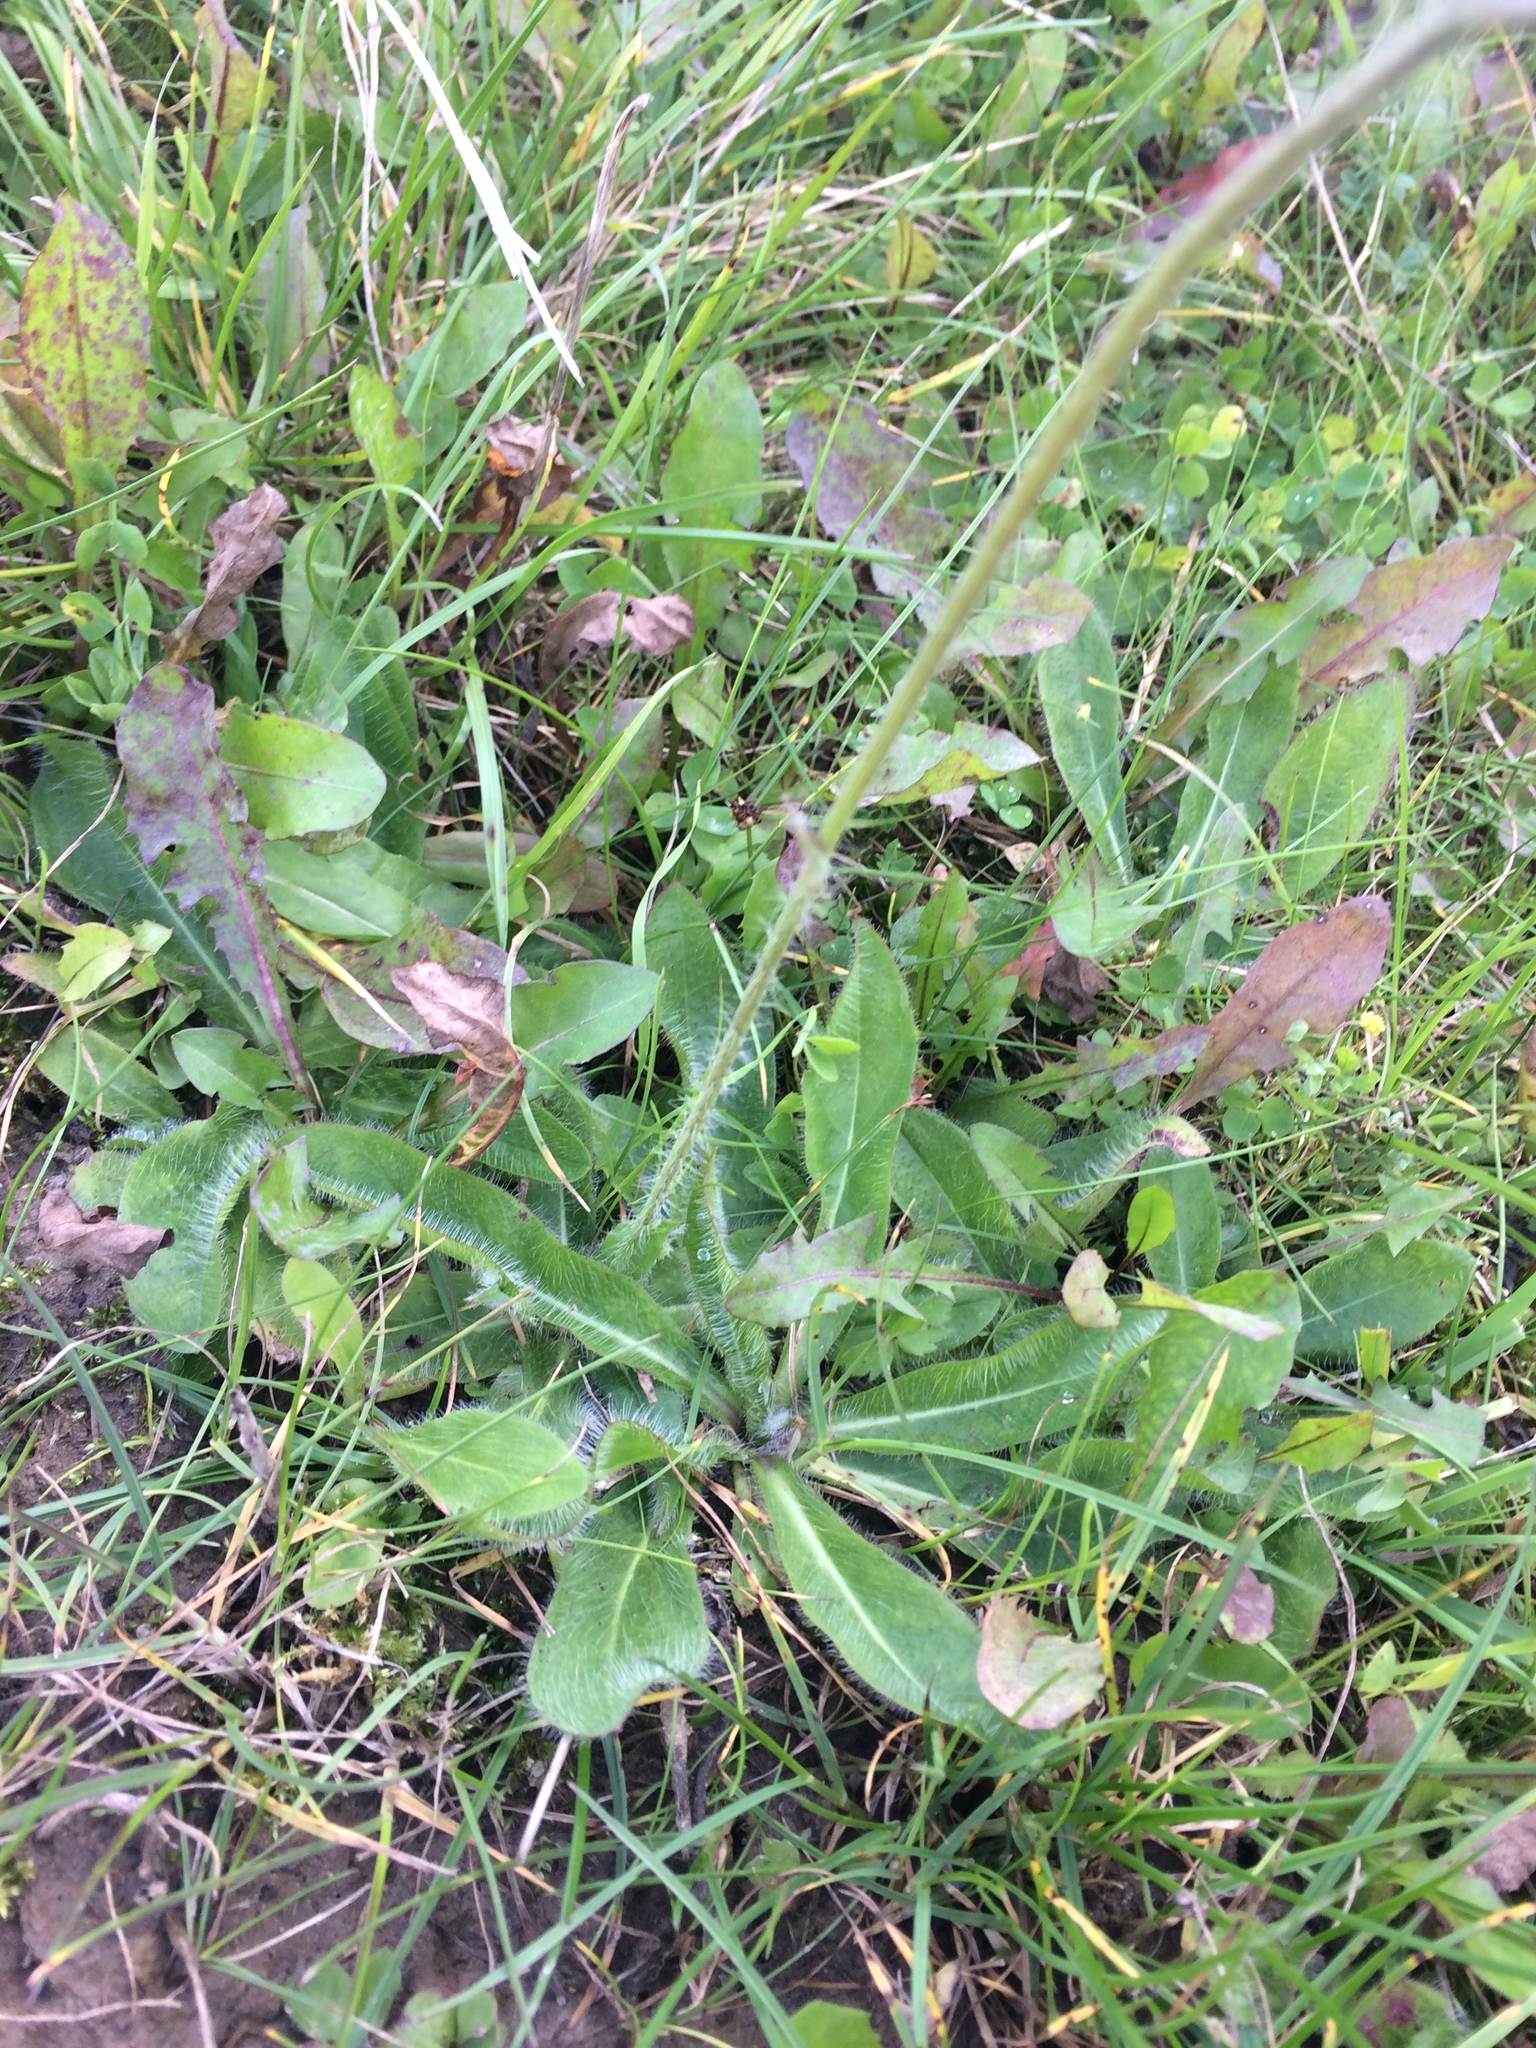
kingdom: Plantae
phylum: Tracheophyta
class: Magnoliopsida
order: Asterales
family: Asteraceae
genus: Pilosella
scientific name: Pilosella aurantiaca
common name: Fox-and-cubs
